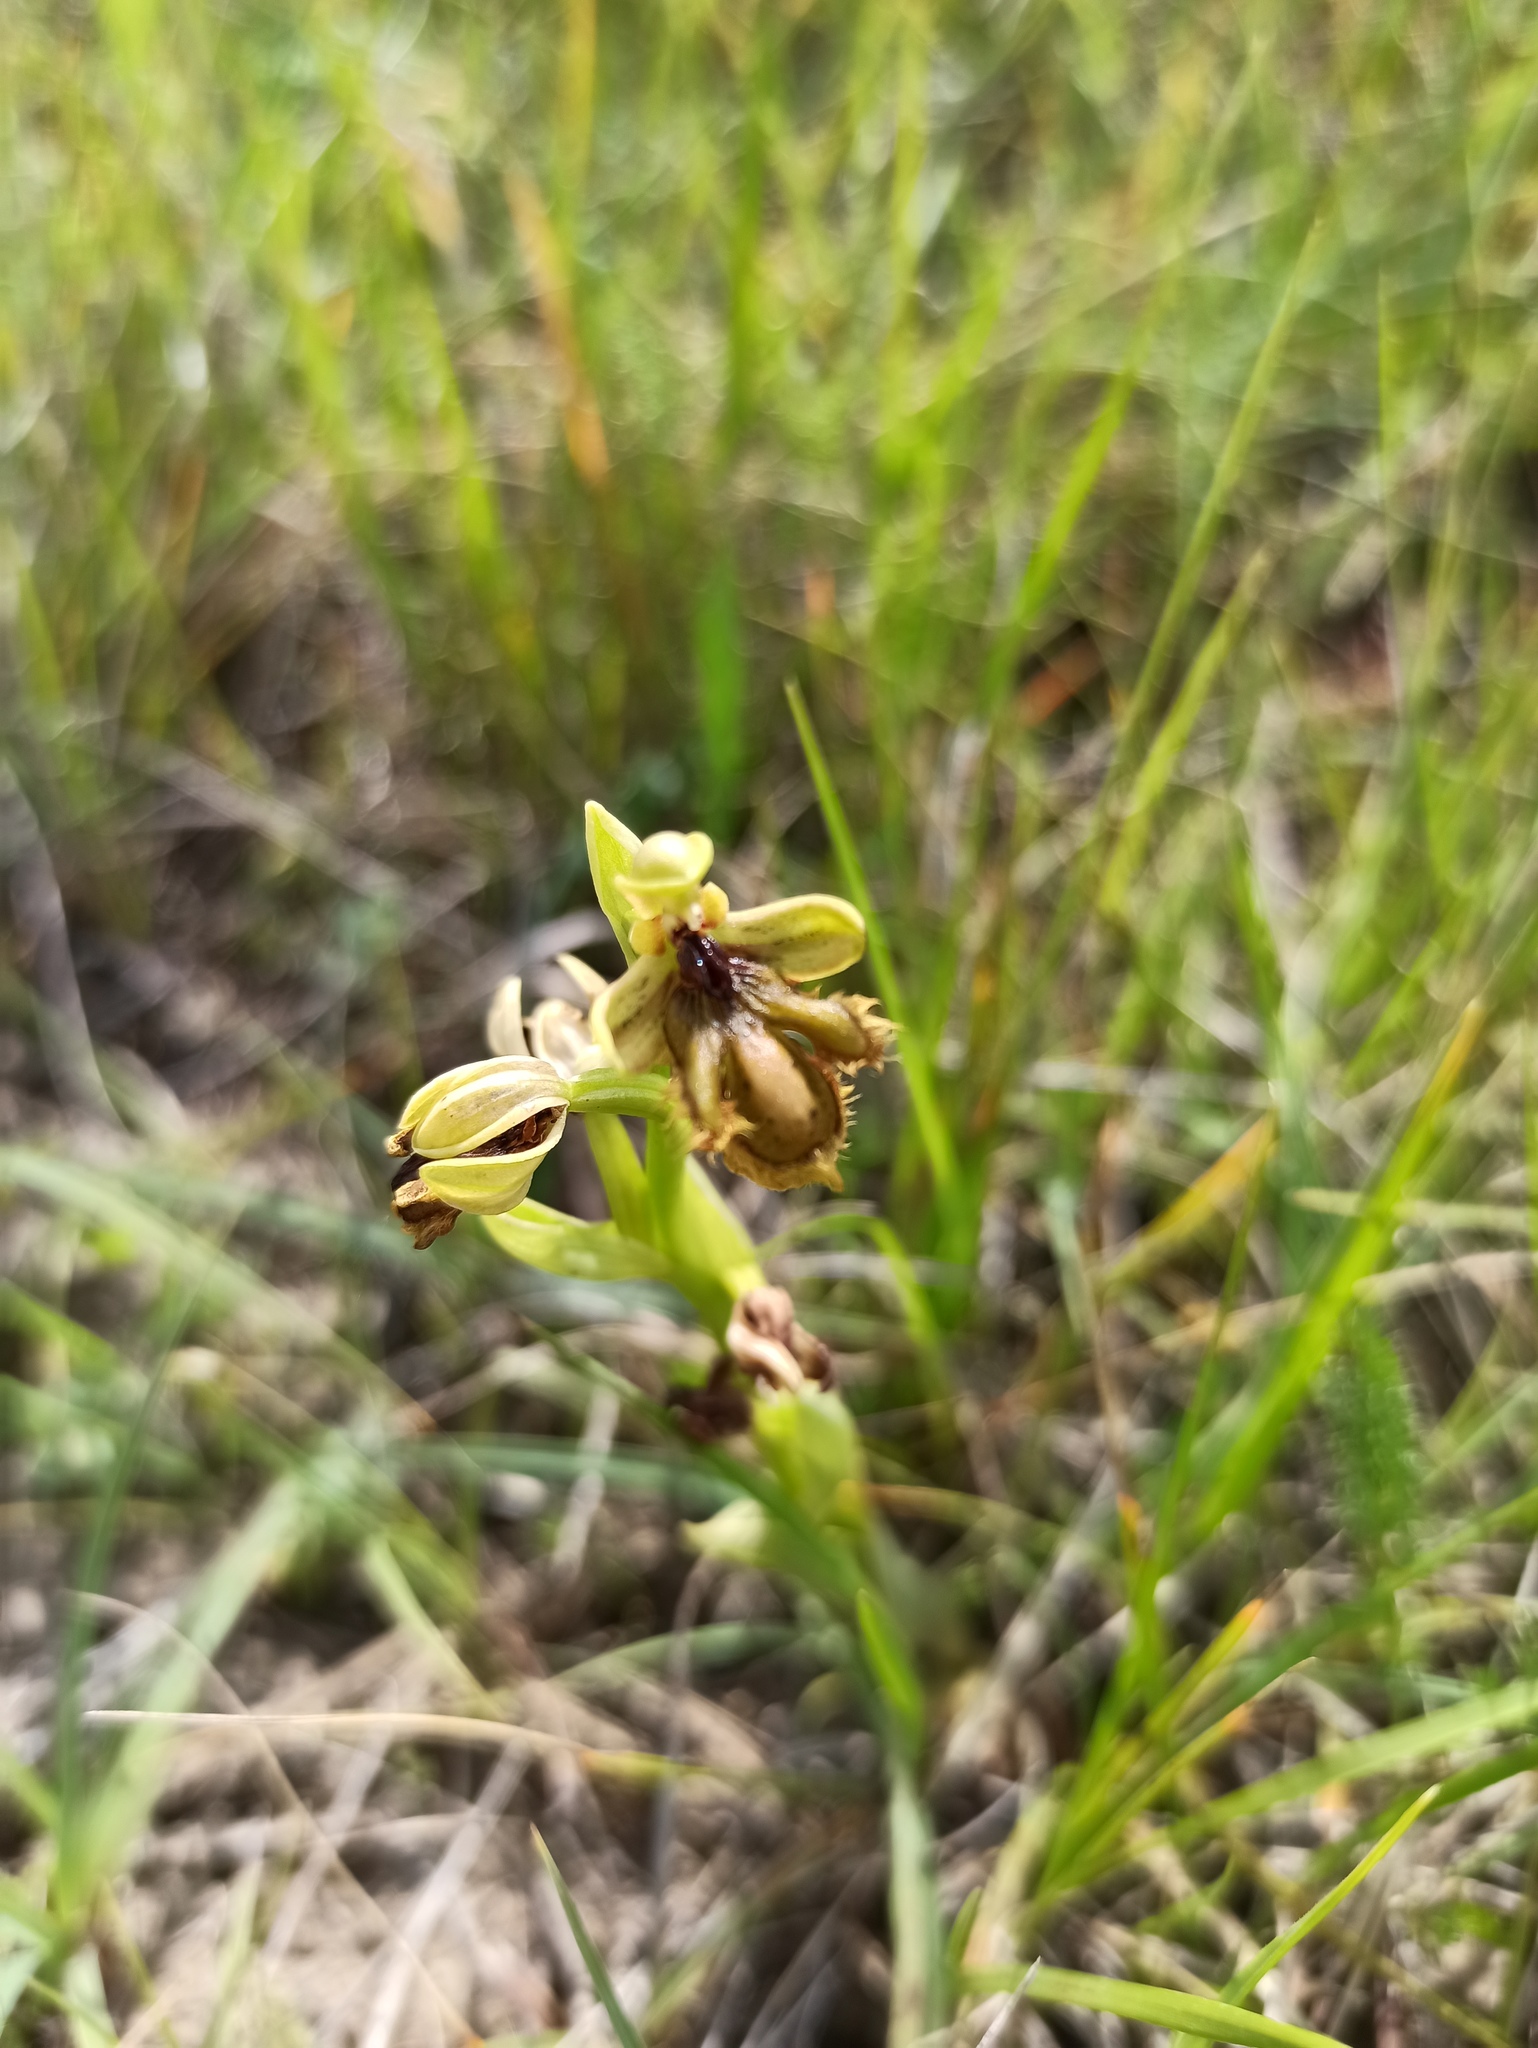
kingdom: Plantae
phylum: Tracheophyta
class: Liliopsida
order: Asparagales
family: Orchidaceae
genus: Ophrys
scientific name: Ophrys speculum
